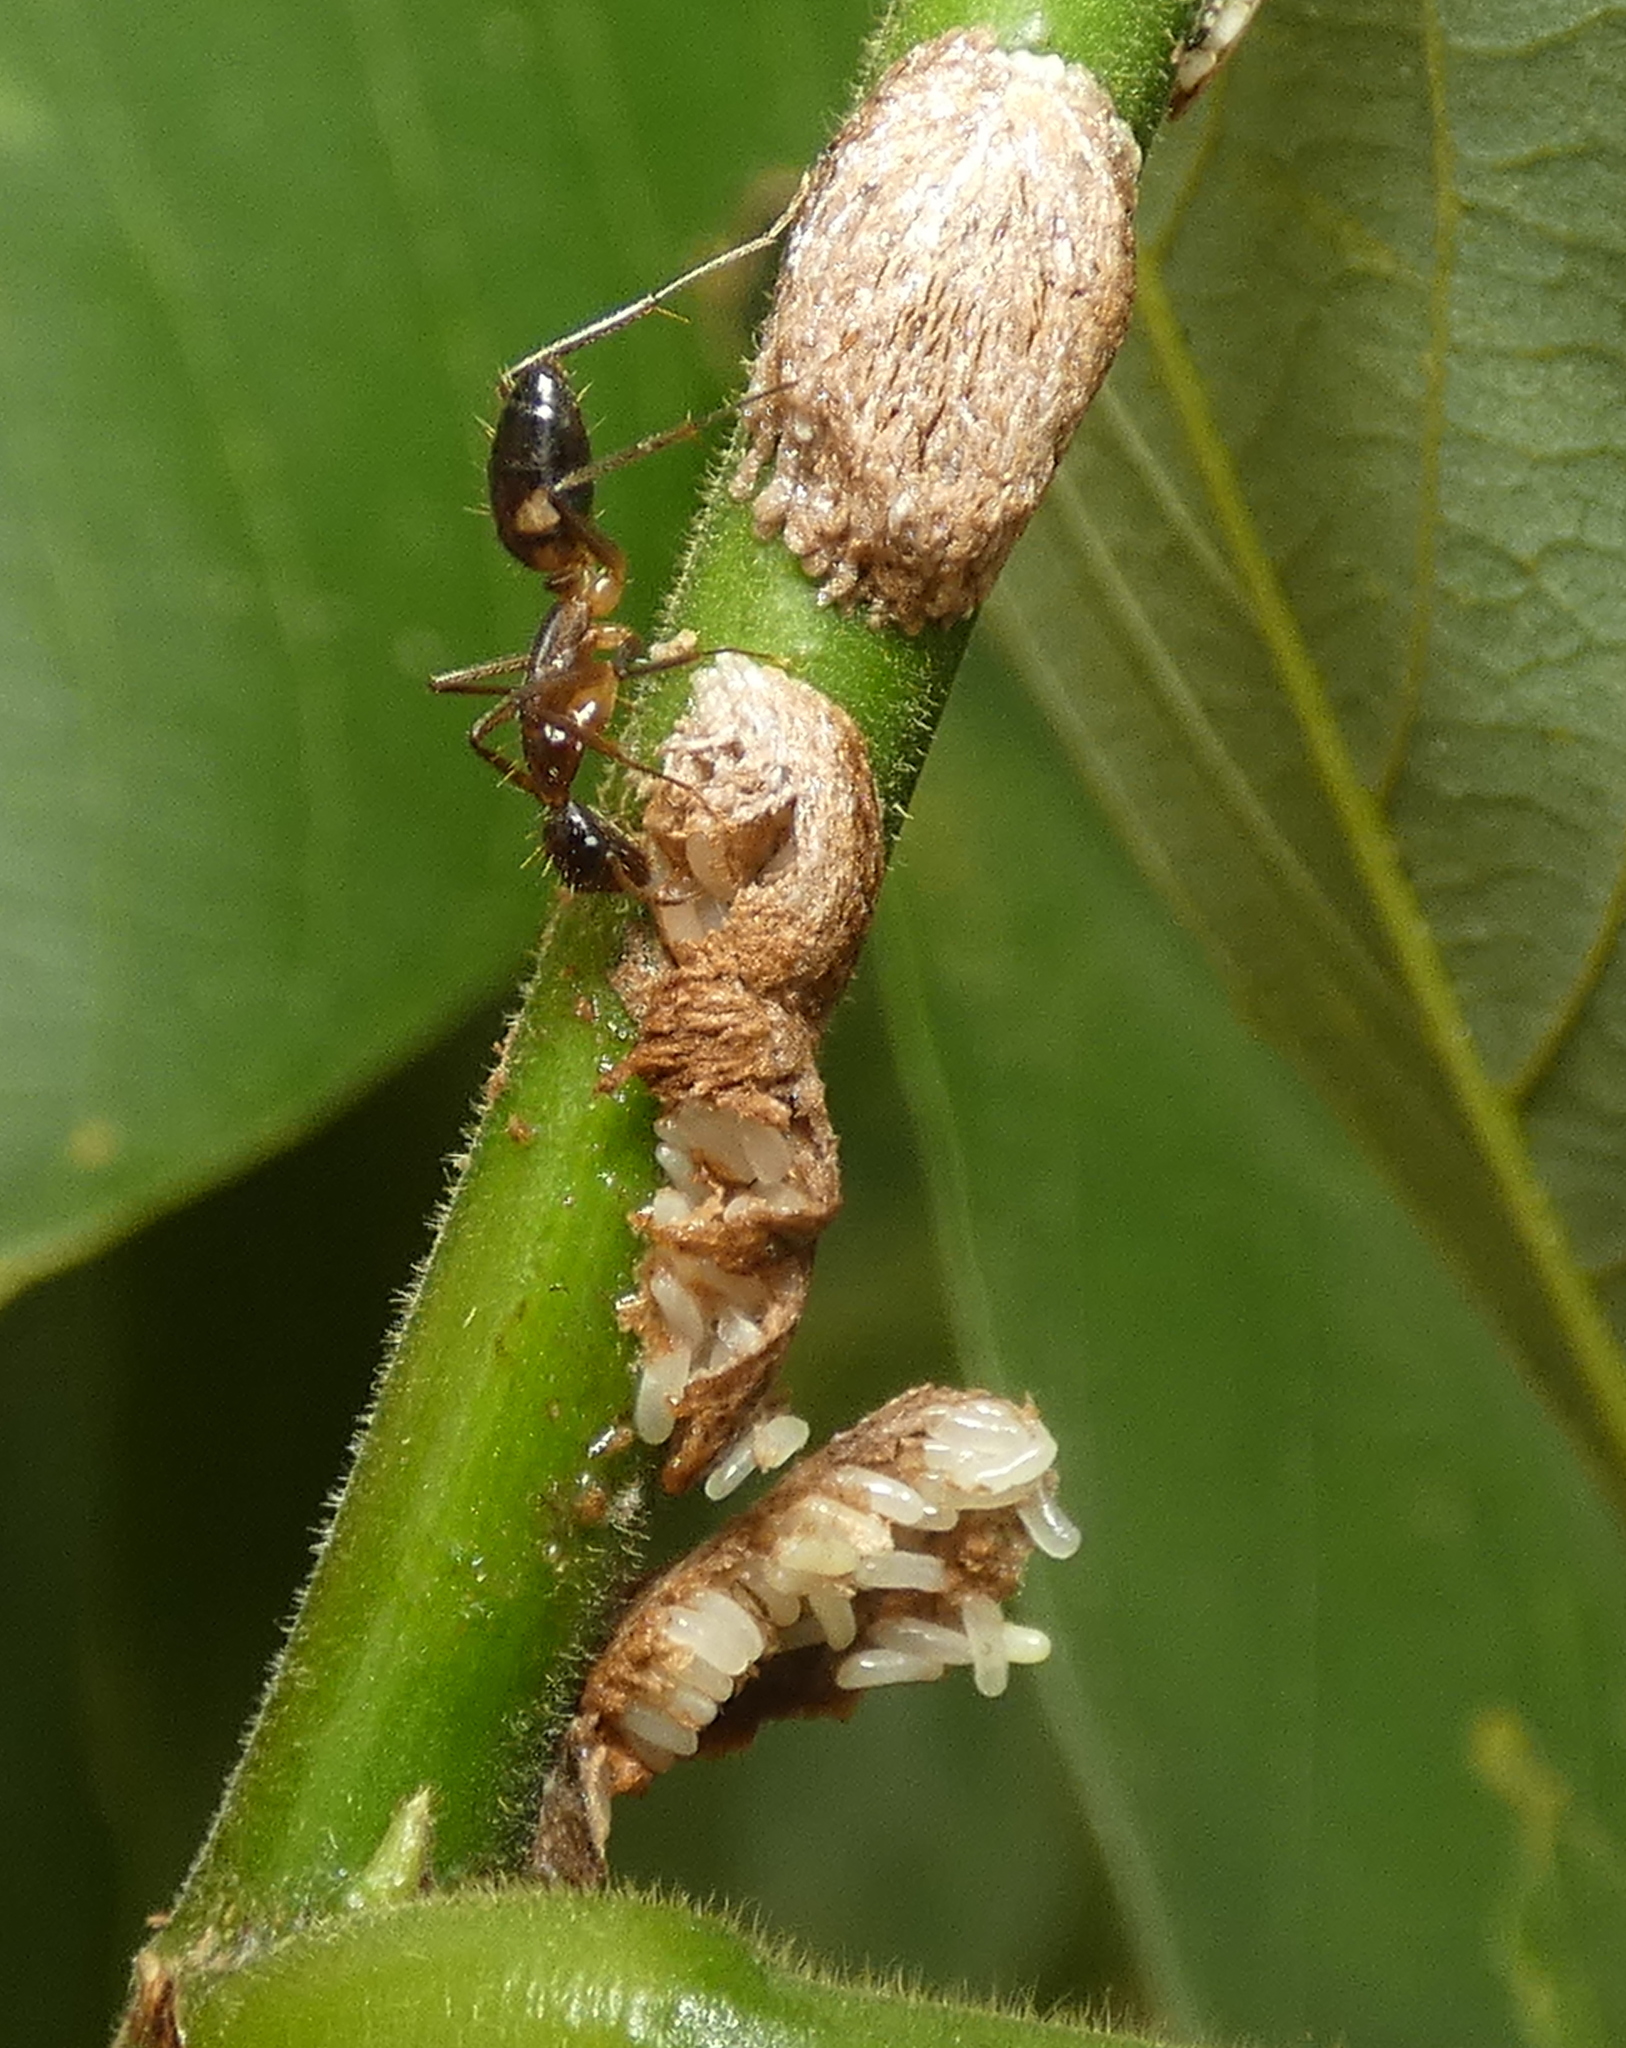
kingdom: Animalia
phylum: Arthropoda
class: Insecta
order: Hemiptera
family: Aetalionidae
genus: Aetalion
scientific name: Aetalion reticulatum
